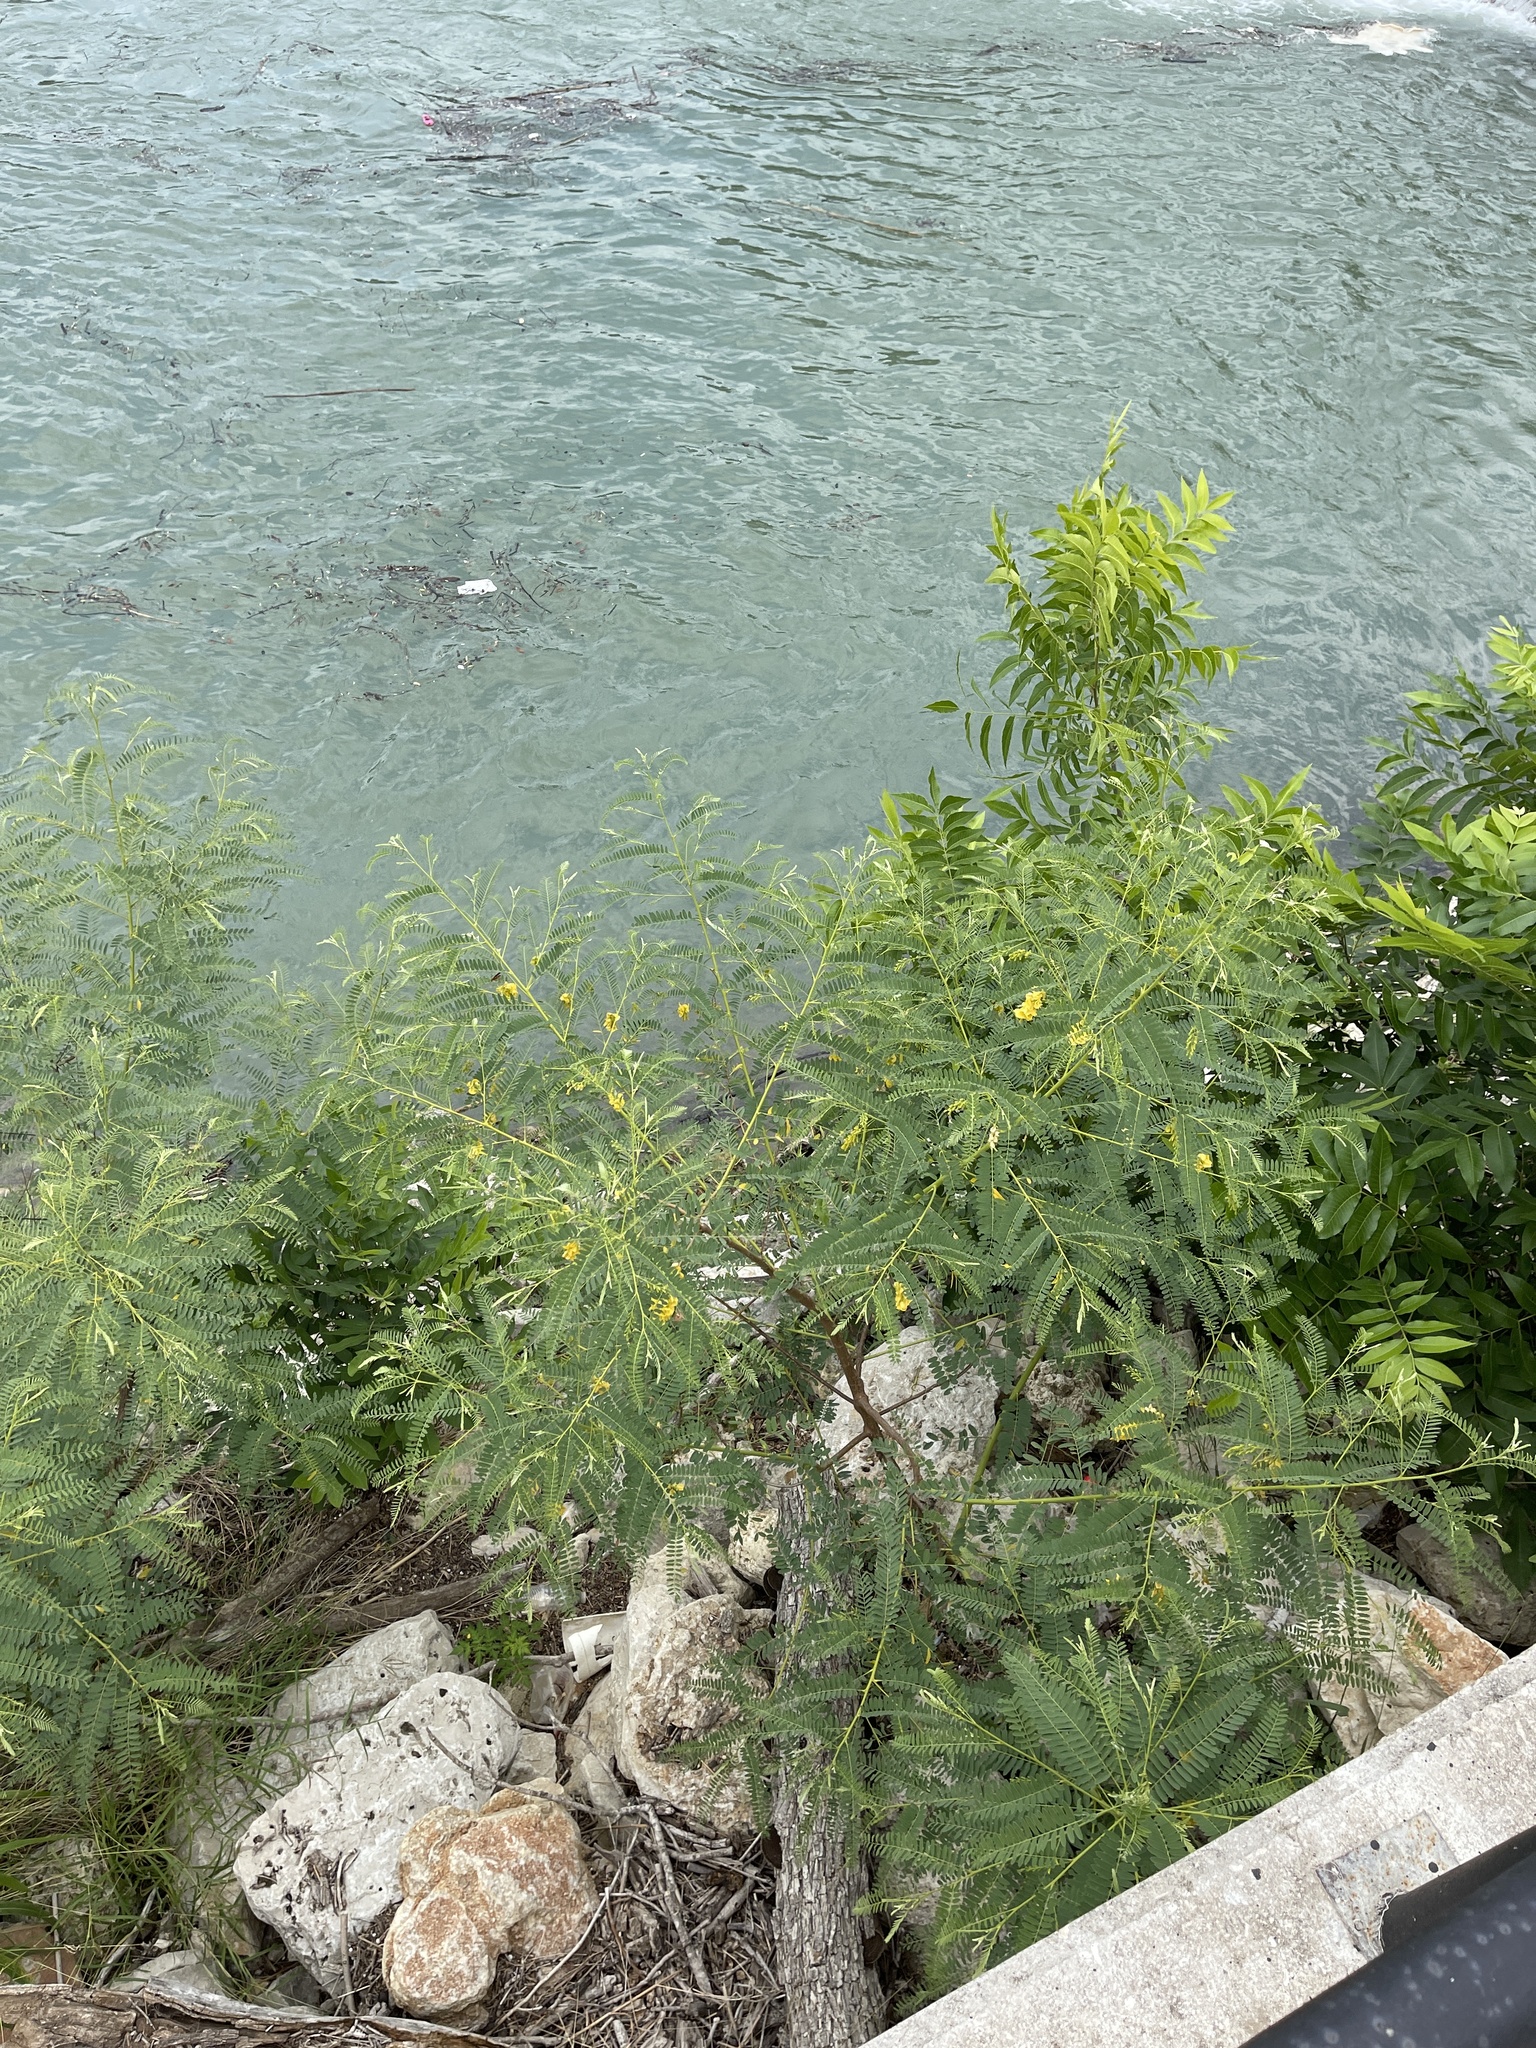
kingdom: Plantae
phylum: Tracheophyta
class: Magnoliopsida
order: Fabales
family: Fabaceae
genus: Sesbania
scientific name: Sesbania drummondii
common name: Poison-bean
